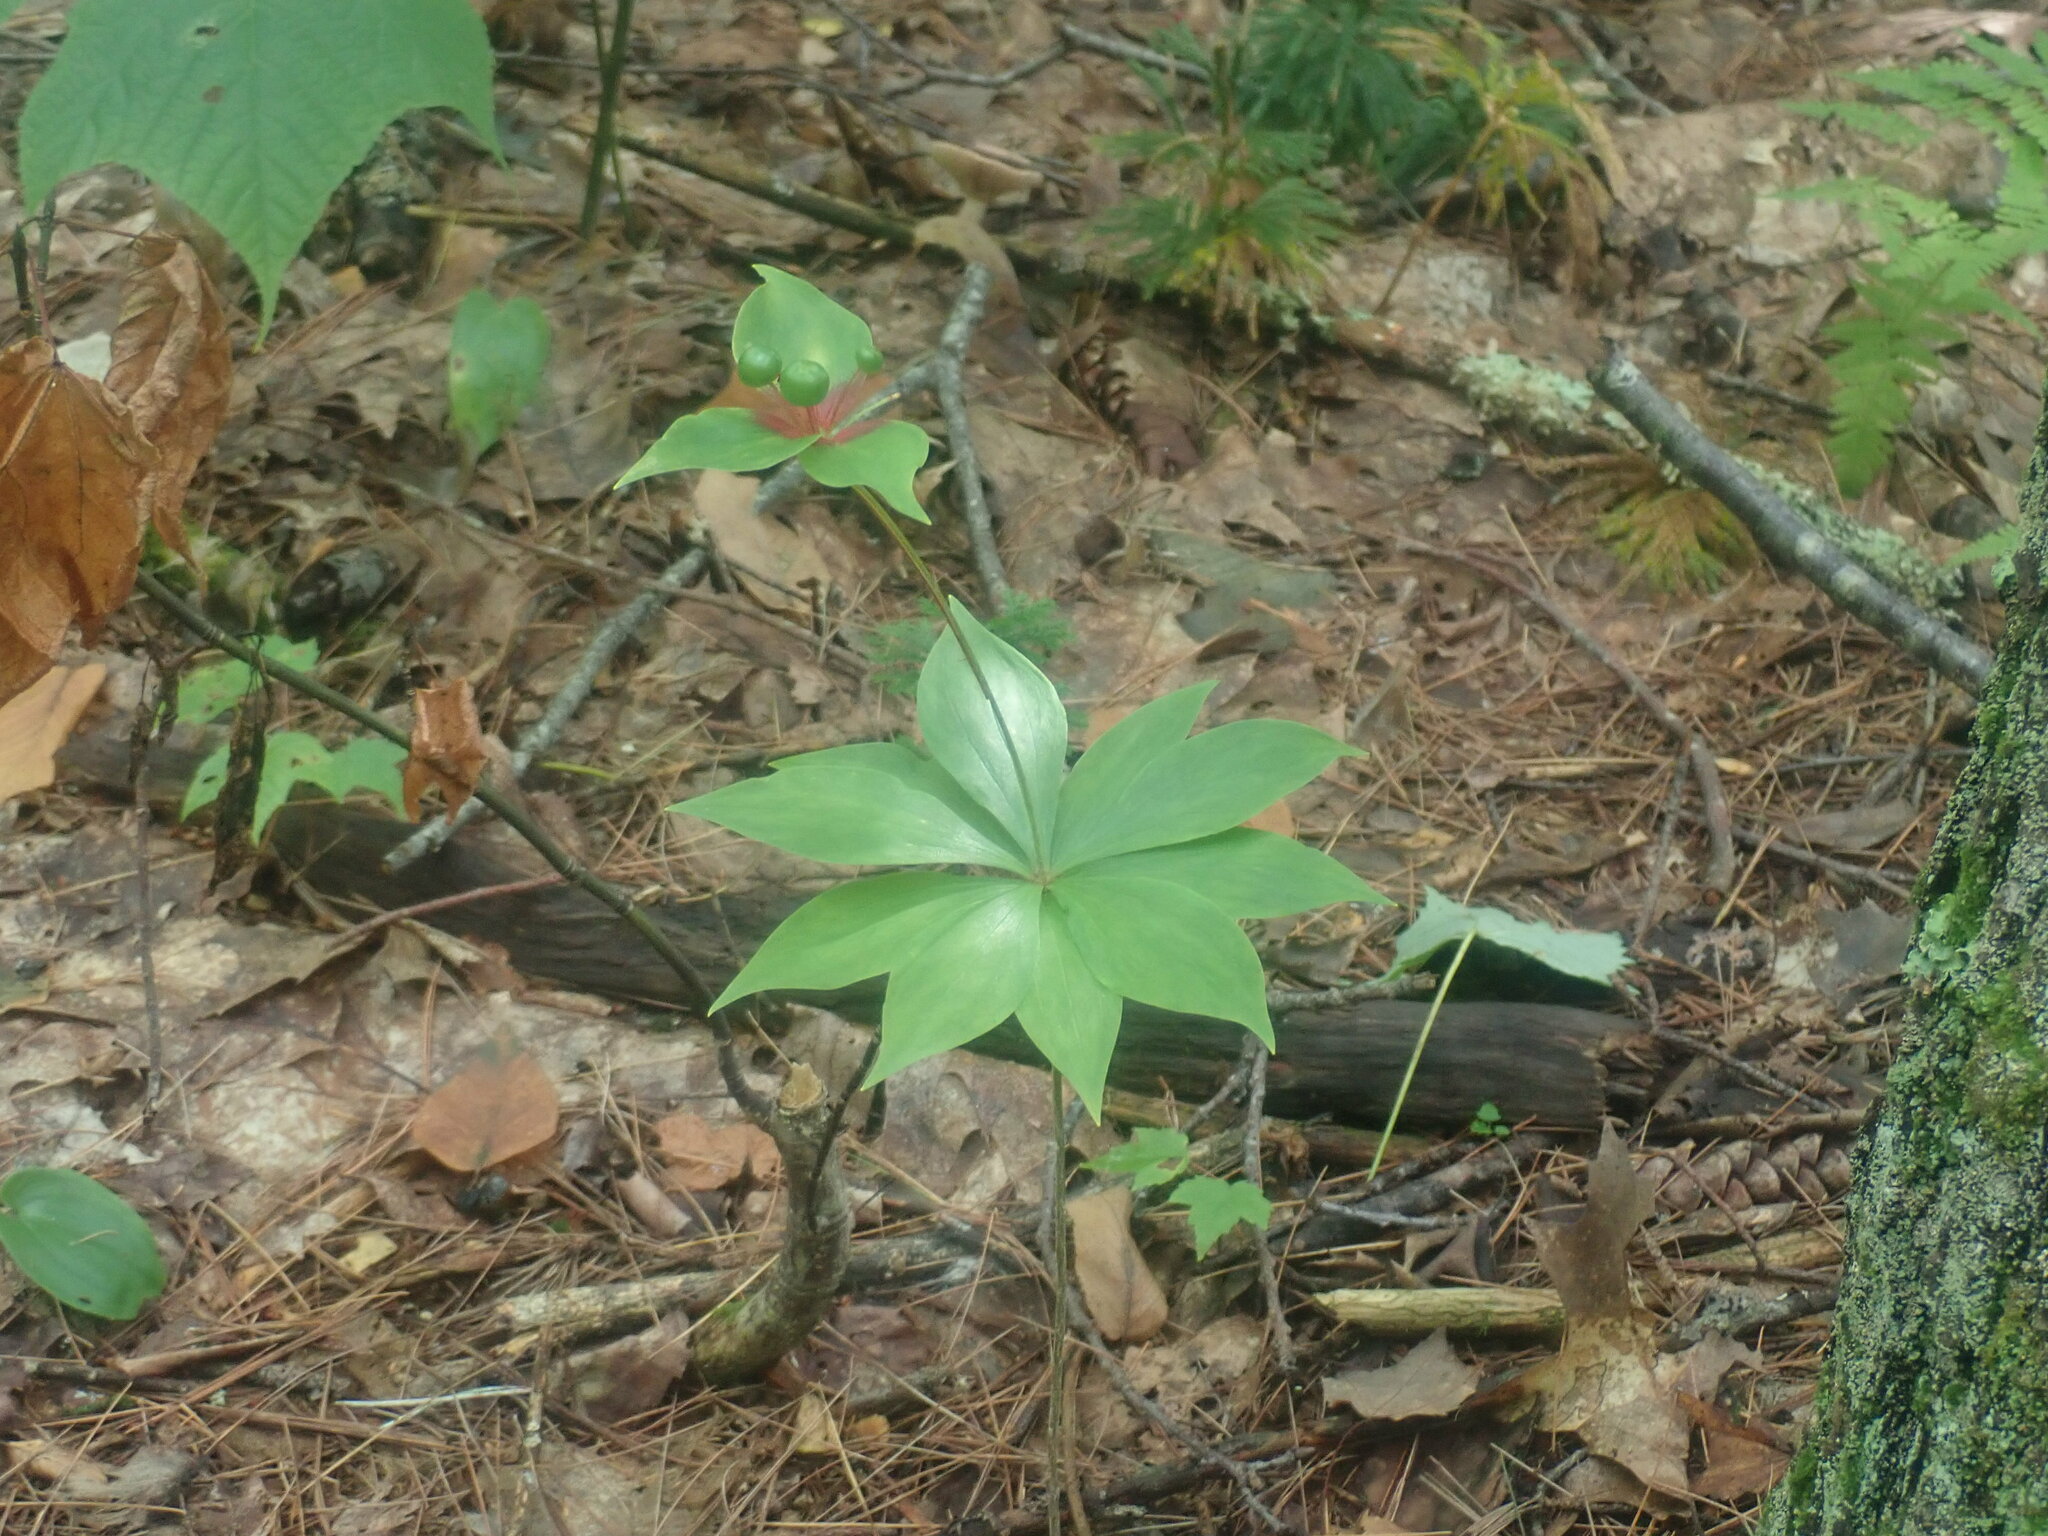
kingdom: Plantae
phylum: Tracheophyta
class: Liliopsida
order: Liliales
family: Liliaceae
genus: Medeola
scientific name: Medeola virginiana
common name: Indian cucumber-root
